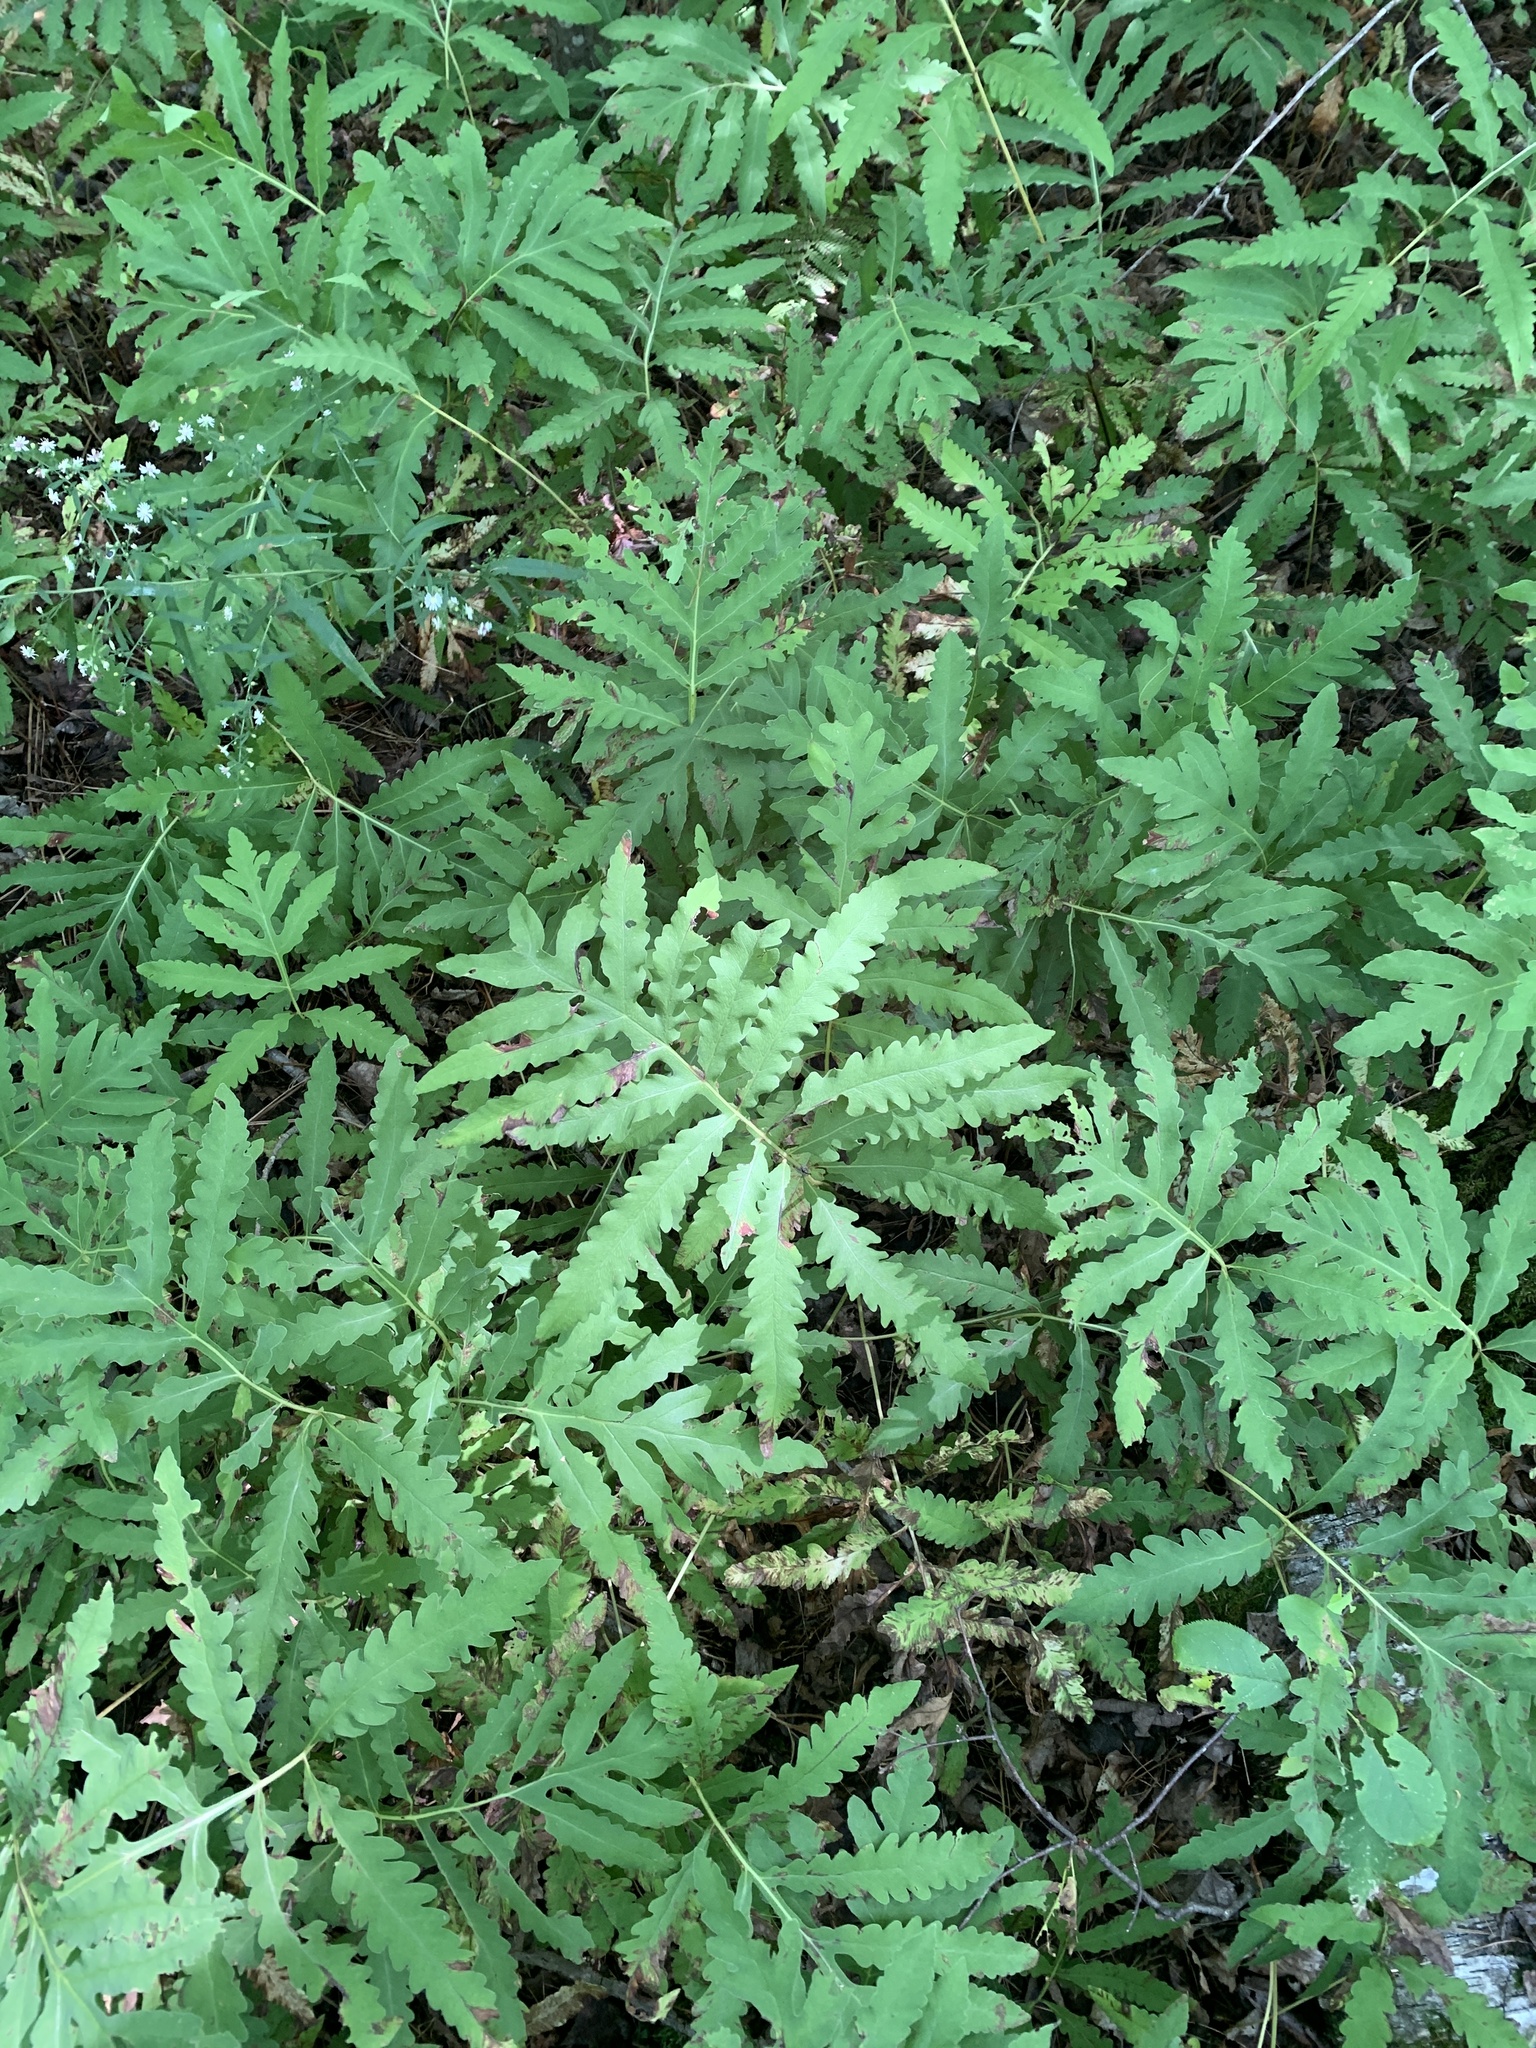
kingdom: Plantae
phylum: Tracheophyta
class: Polypodiopsida
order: Polypodiales
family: Onocleaceae
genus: Onoclea
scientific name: Onoclea sensibilis
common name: Sensitive fern
